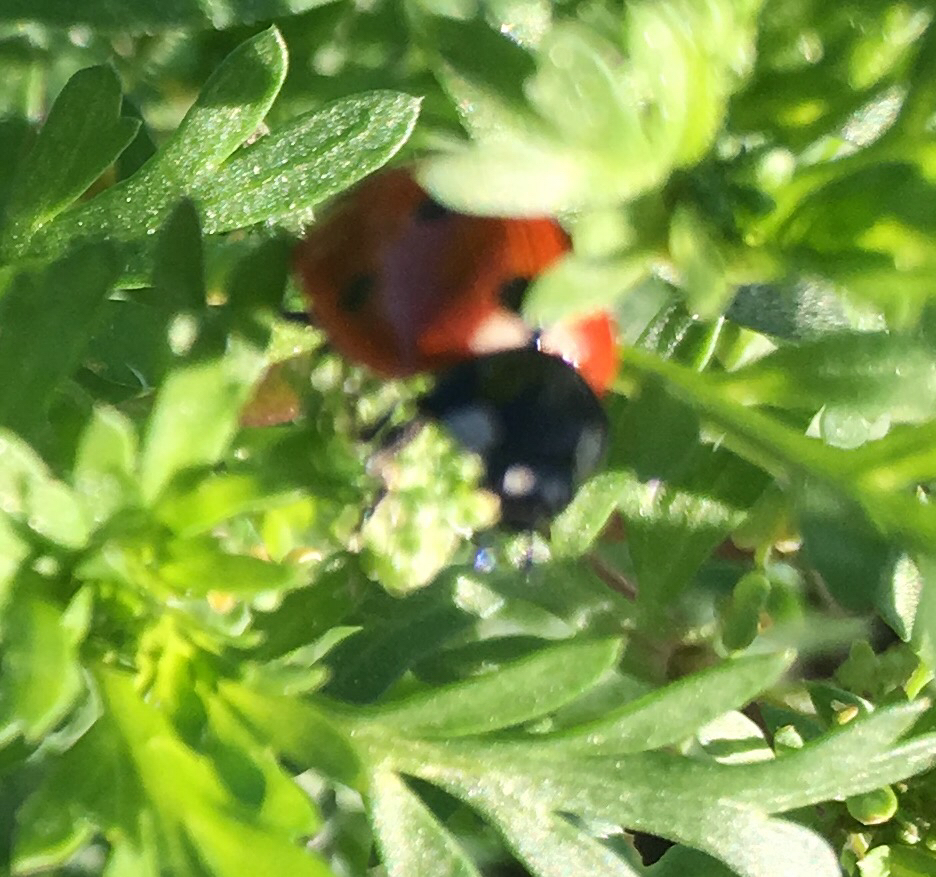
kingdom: Animalia
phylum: Arthropoda
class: Insecta
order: Coleoptera
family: Coccinellidae
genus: Coccinella
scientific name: Coccinella septempunctata
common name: Sevenspotted lady beetle
